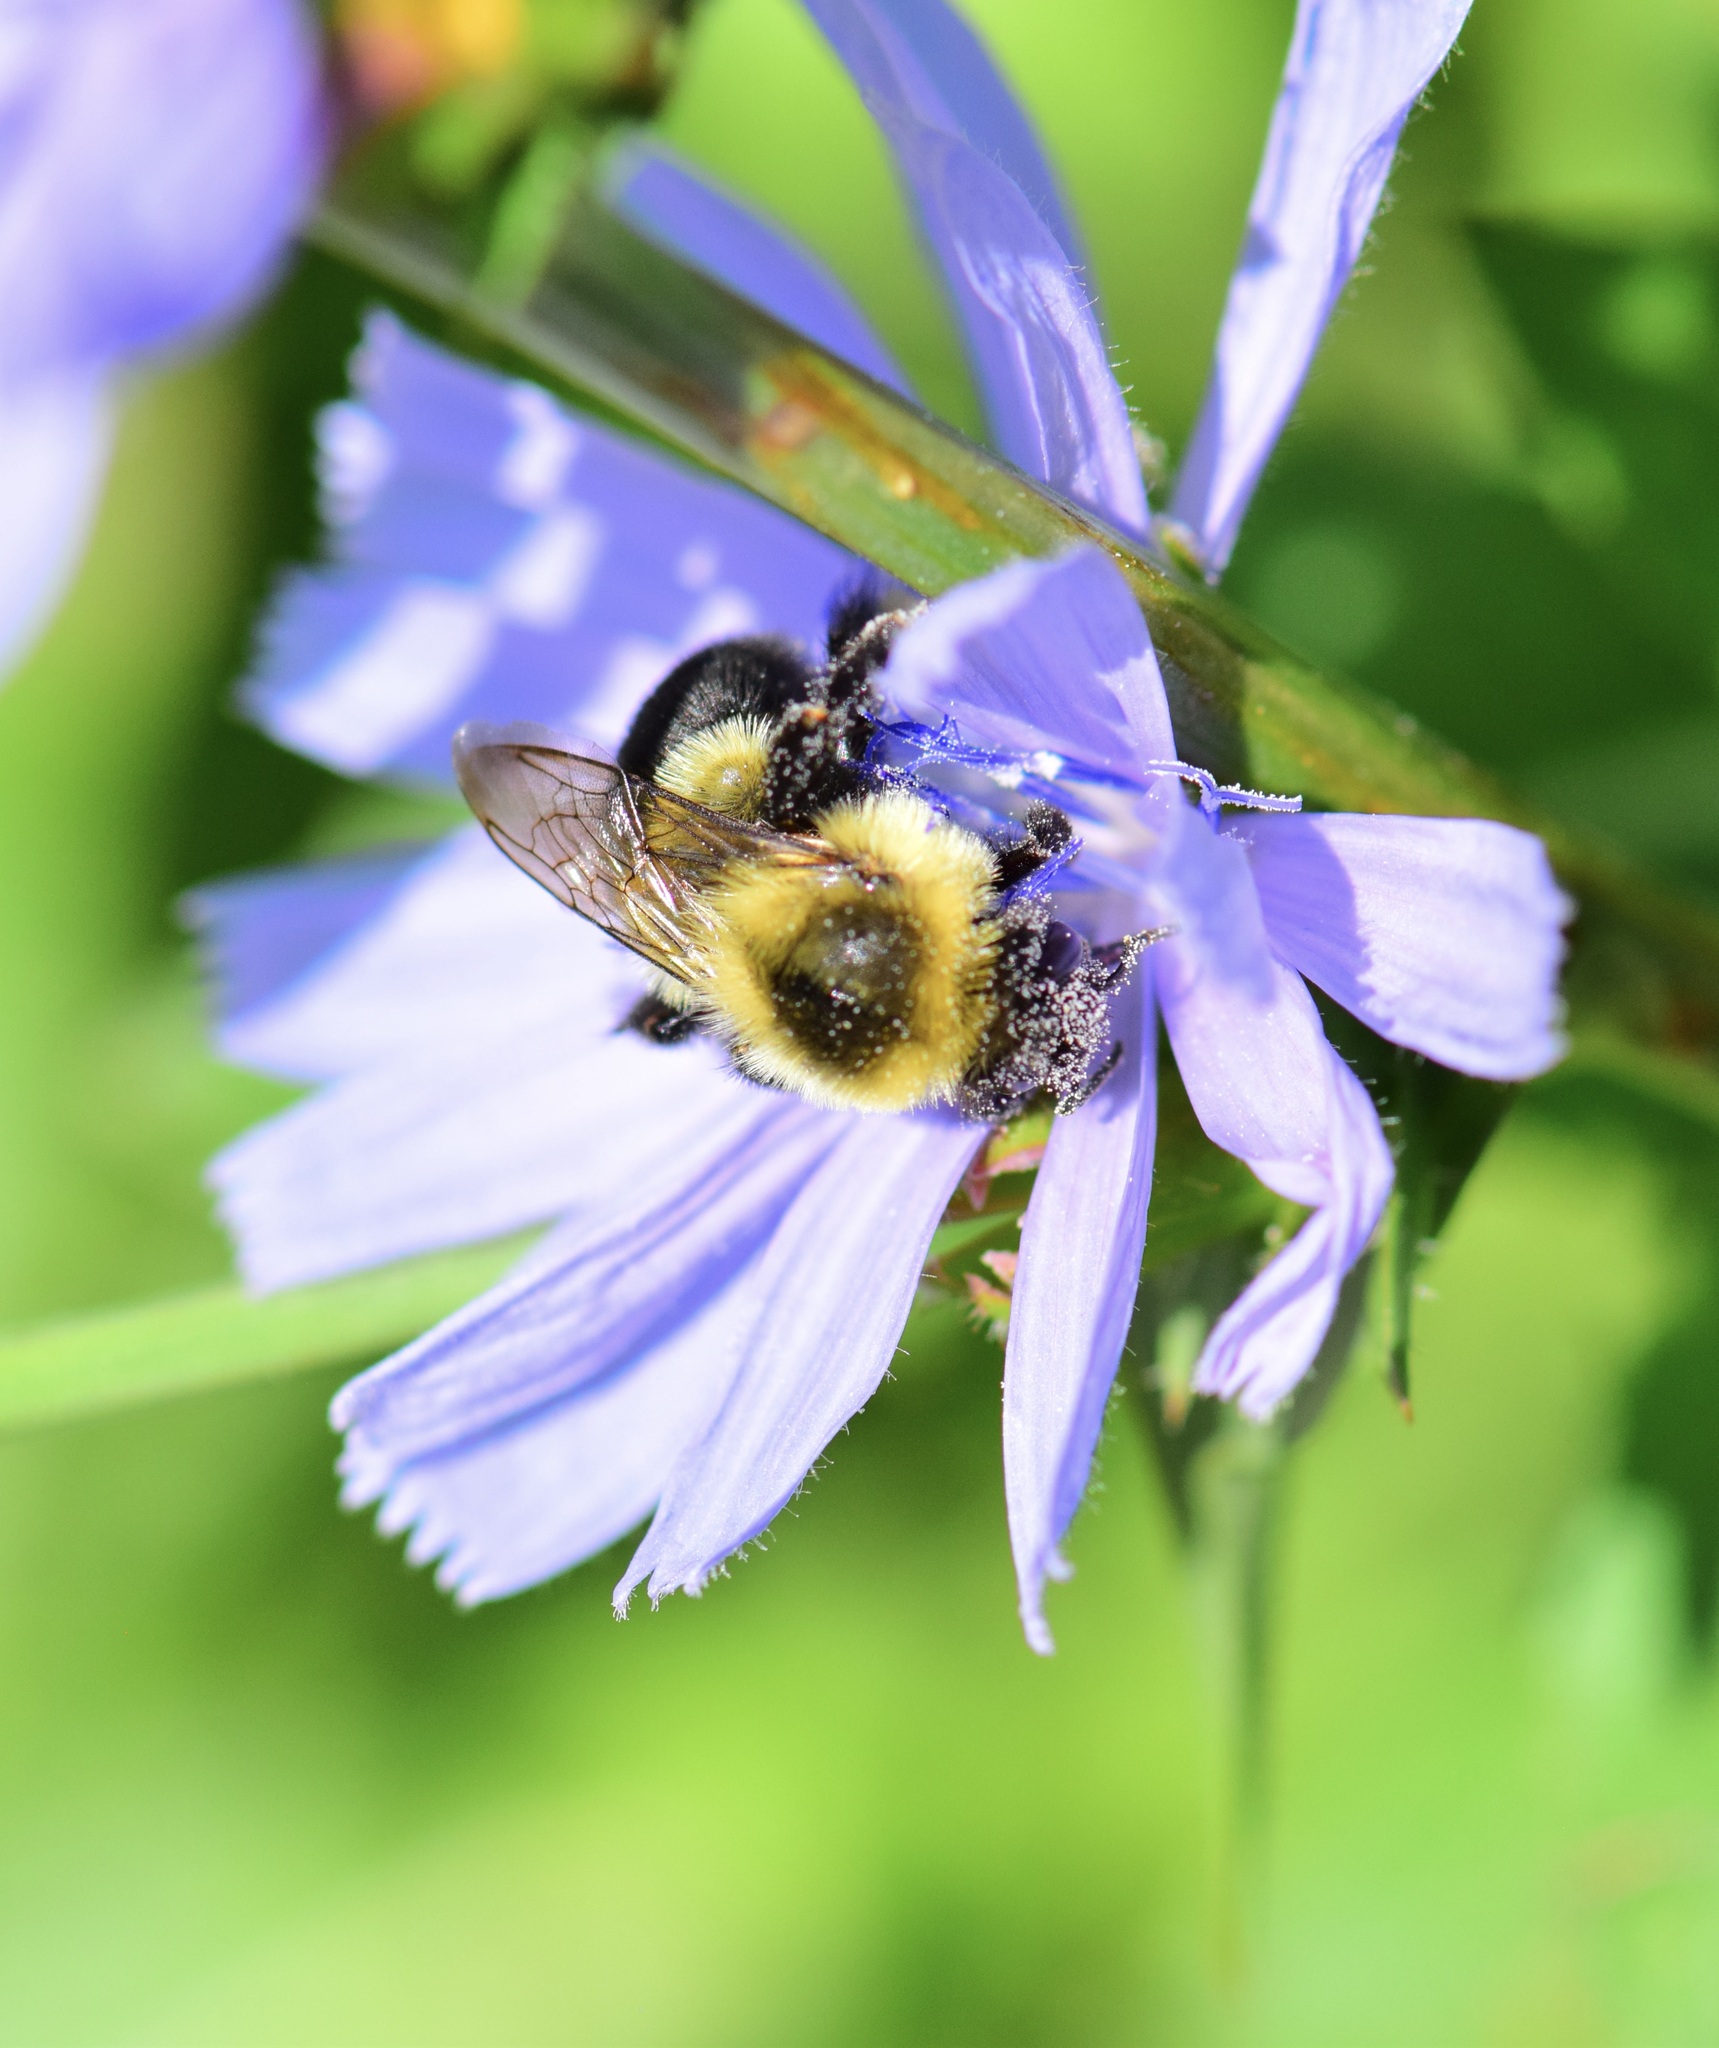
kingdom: Animalia
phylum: Arthropoda
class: Insecta
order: Hymenoptera
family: Apidae
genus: Bombus
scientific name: Bombus impatiens
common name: Common eastern bumble bee
